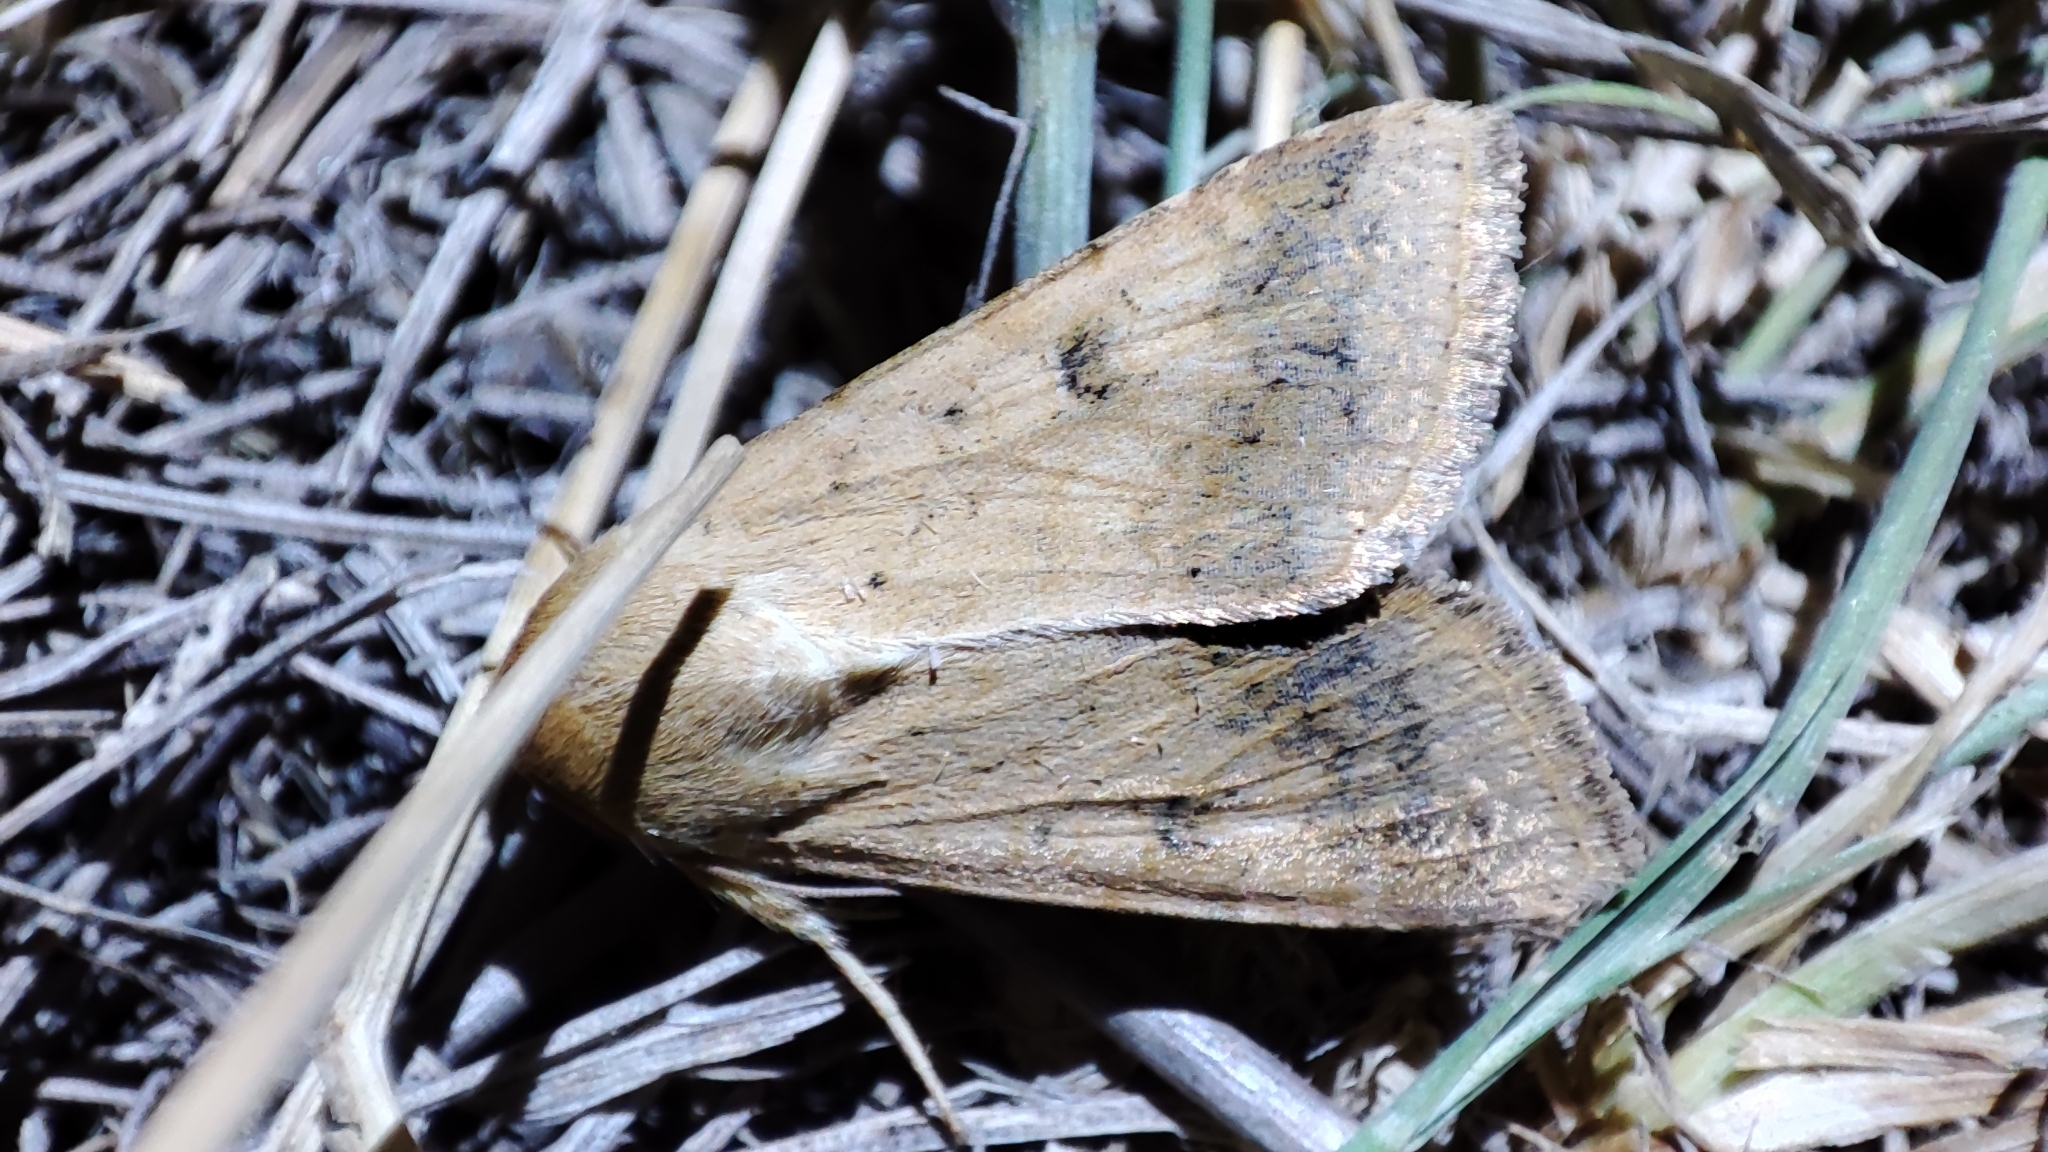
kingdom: Animalia
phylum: Arthropoda
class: Insecta
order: Lepidoptera
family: Noctuidae
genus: Helicoverpa
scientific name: Helicoverpa armigera
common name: Cotton bollworm
